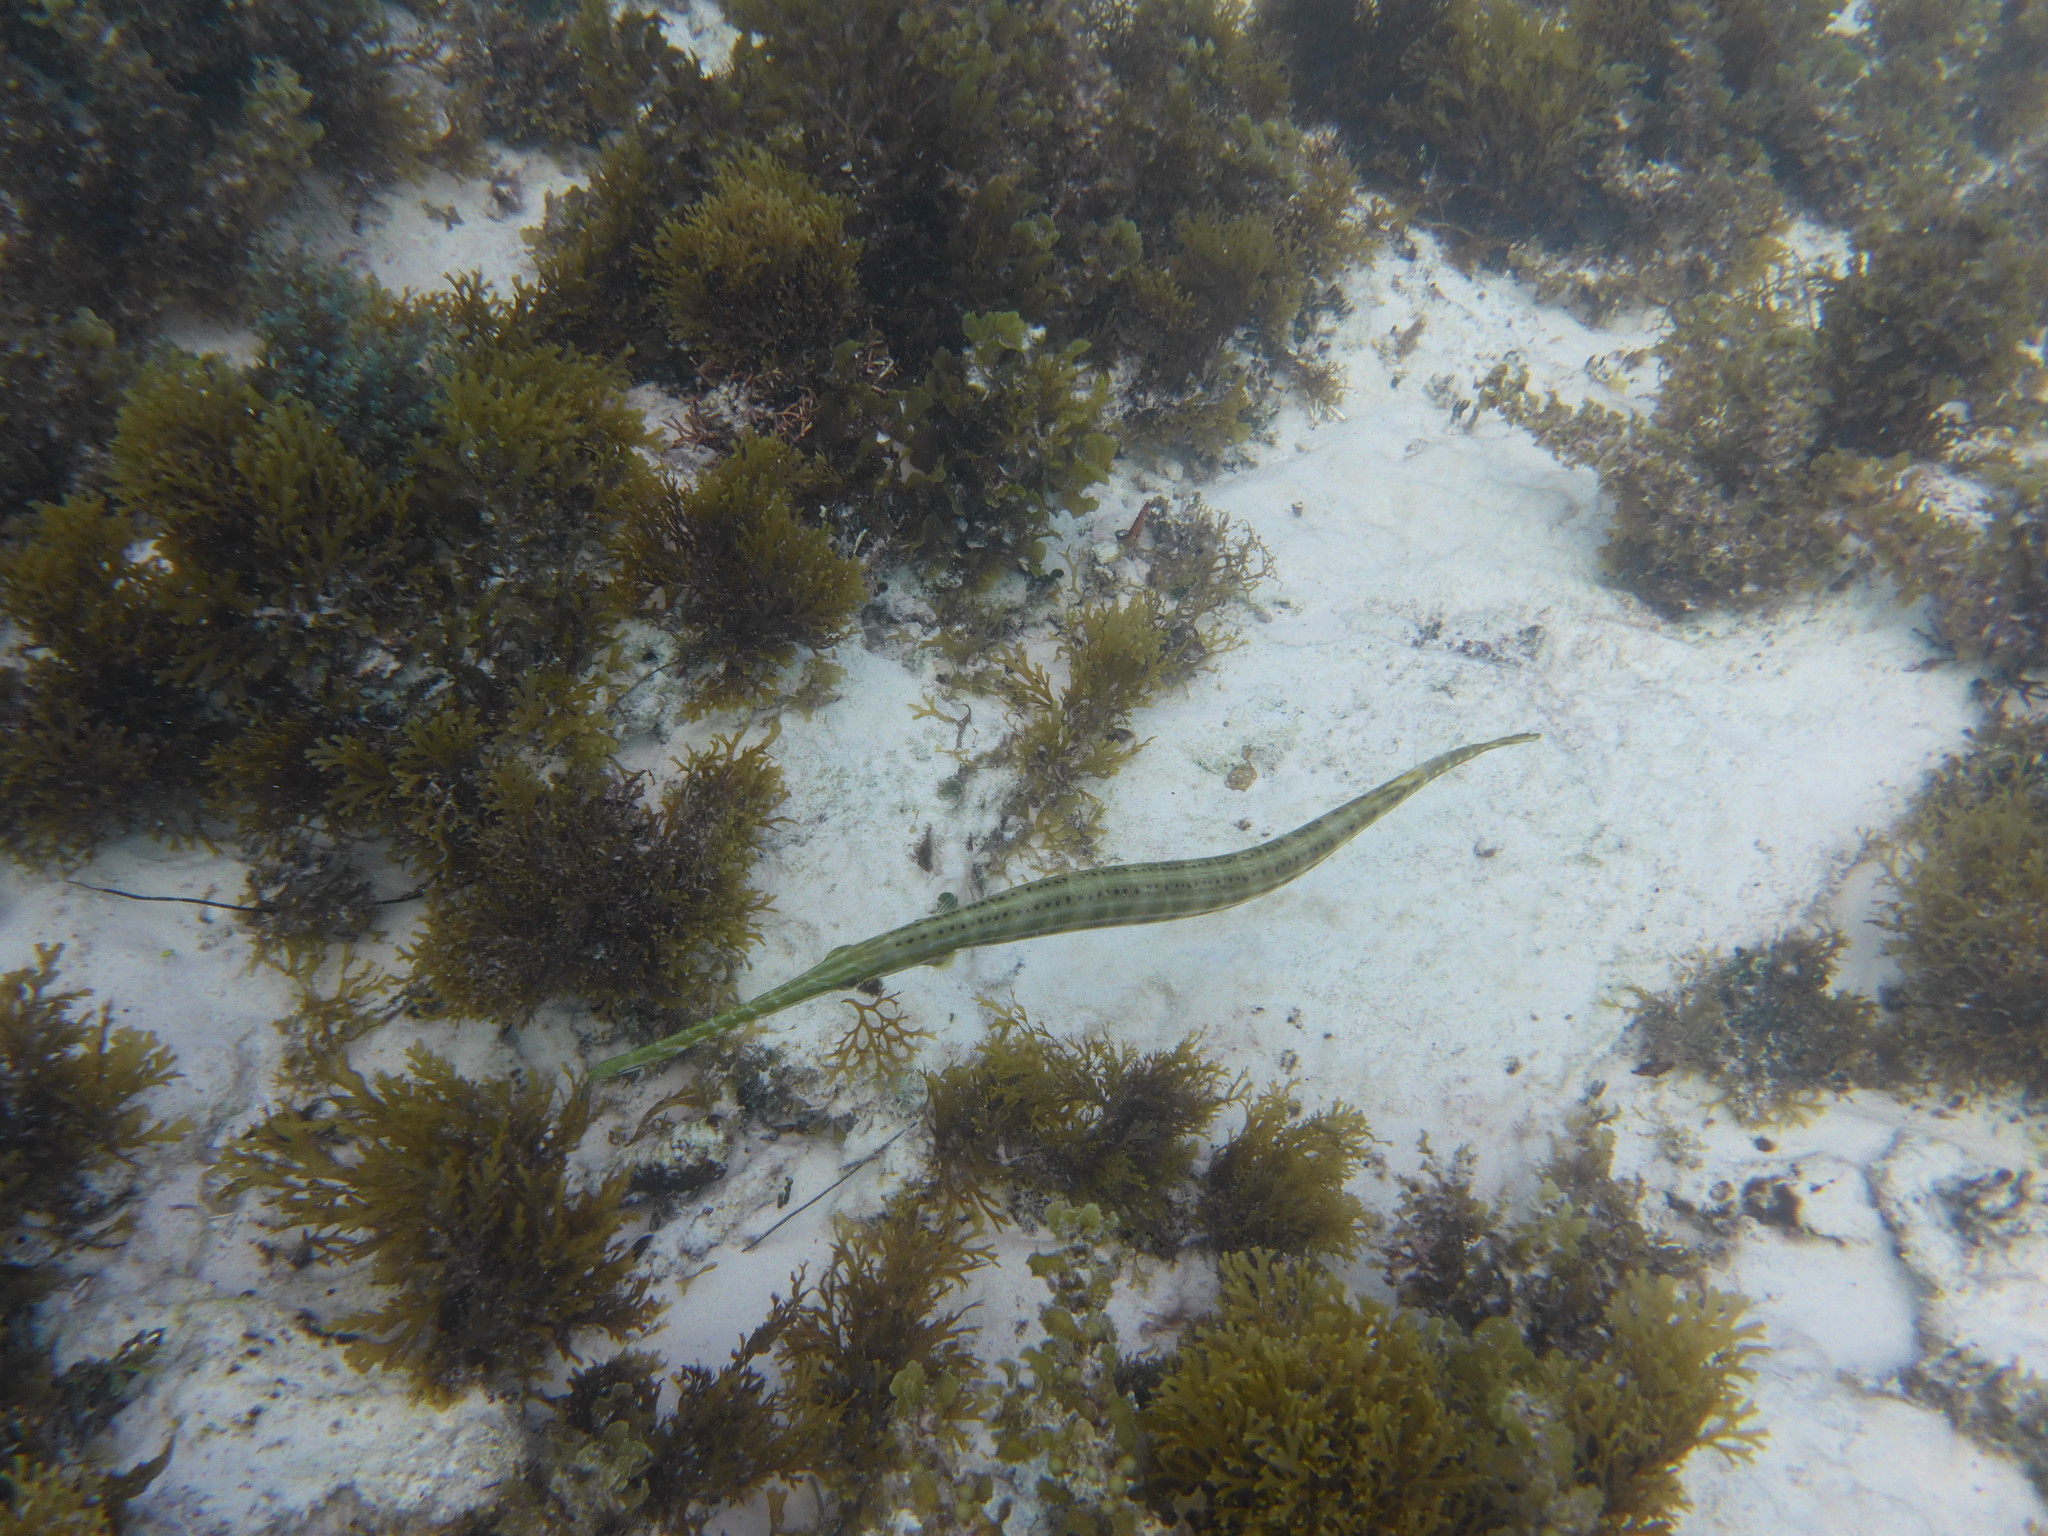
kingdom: Animalia
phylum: Chordata
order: Syngnathiformes
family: Aulostomidae
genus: Aulostomus
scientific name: Aulostomus maculatus
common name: West atlantic trumpetfish
